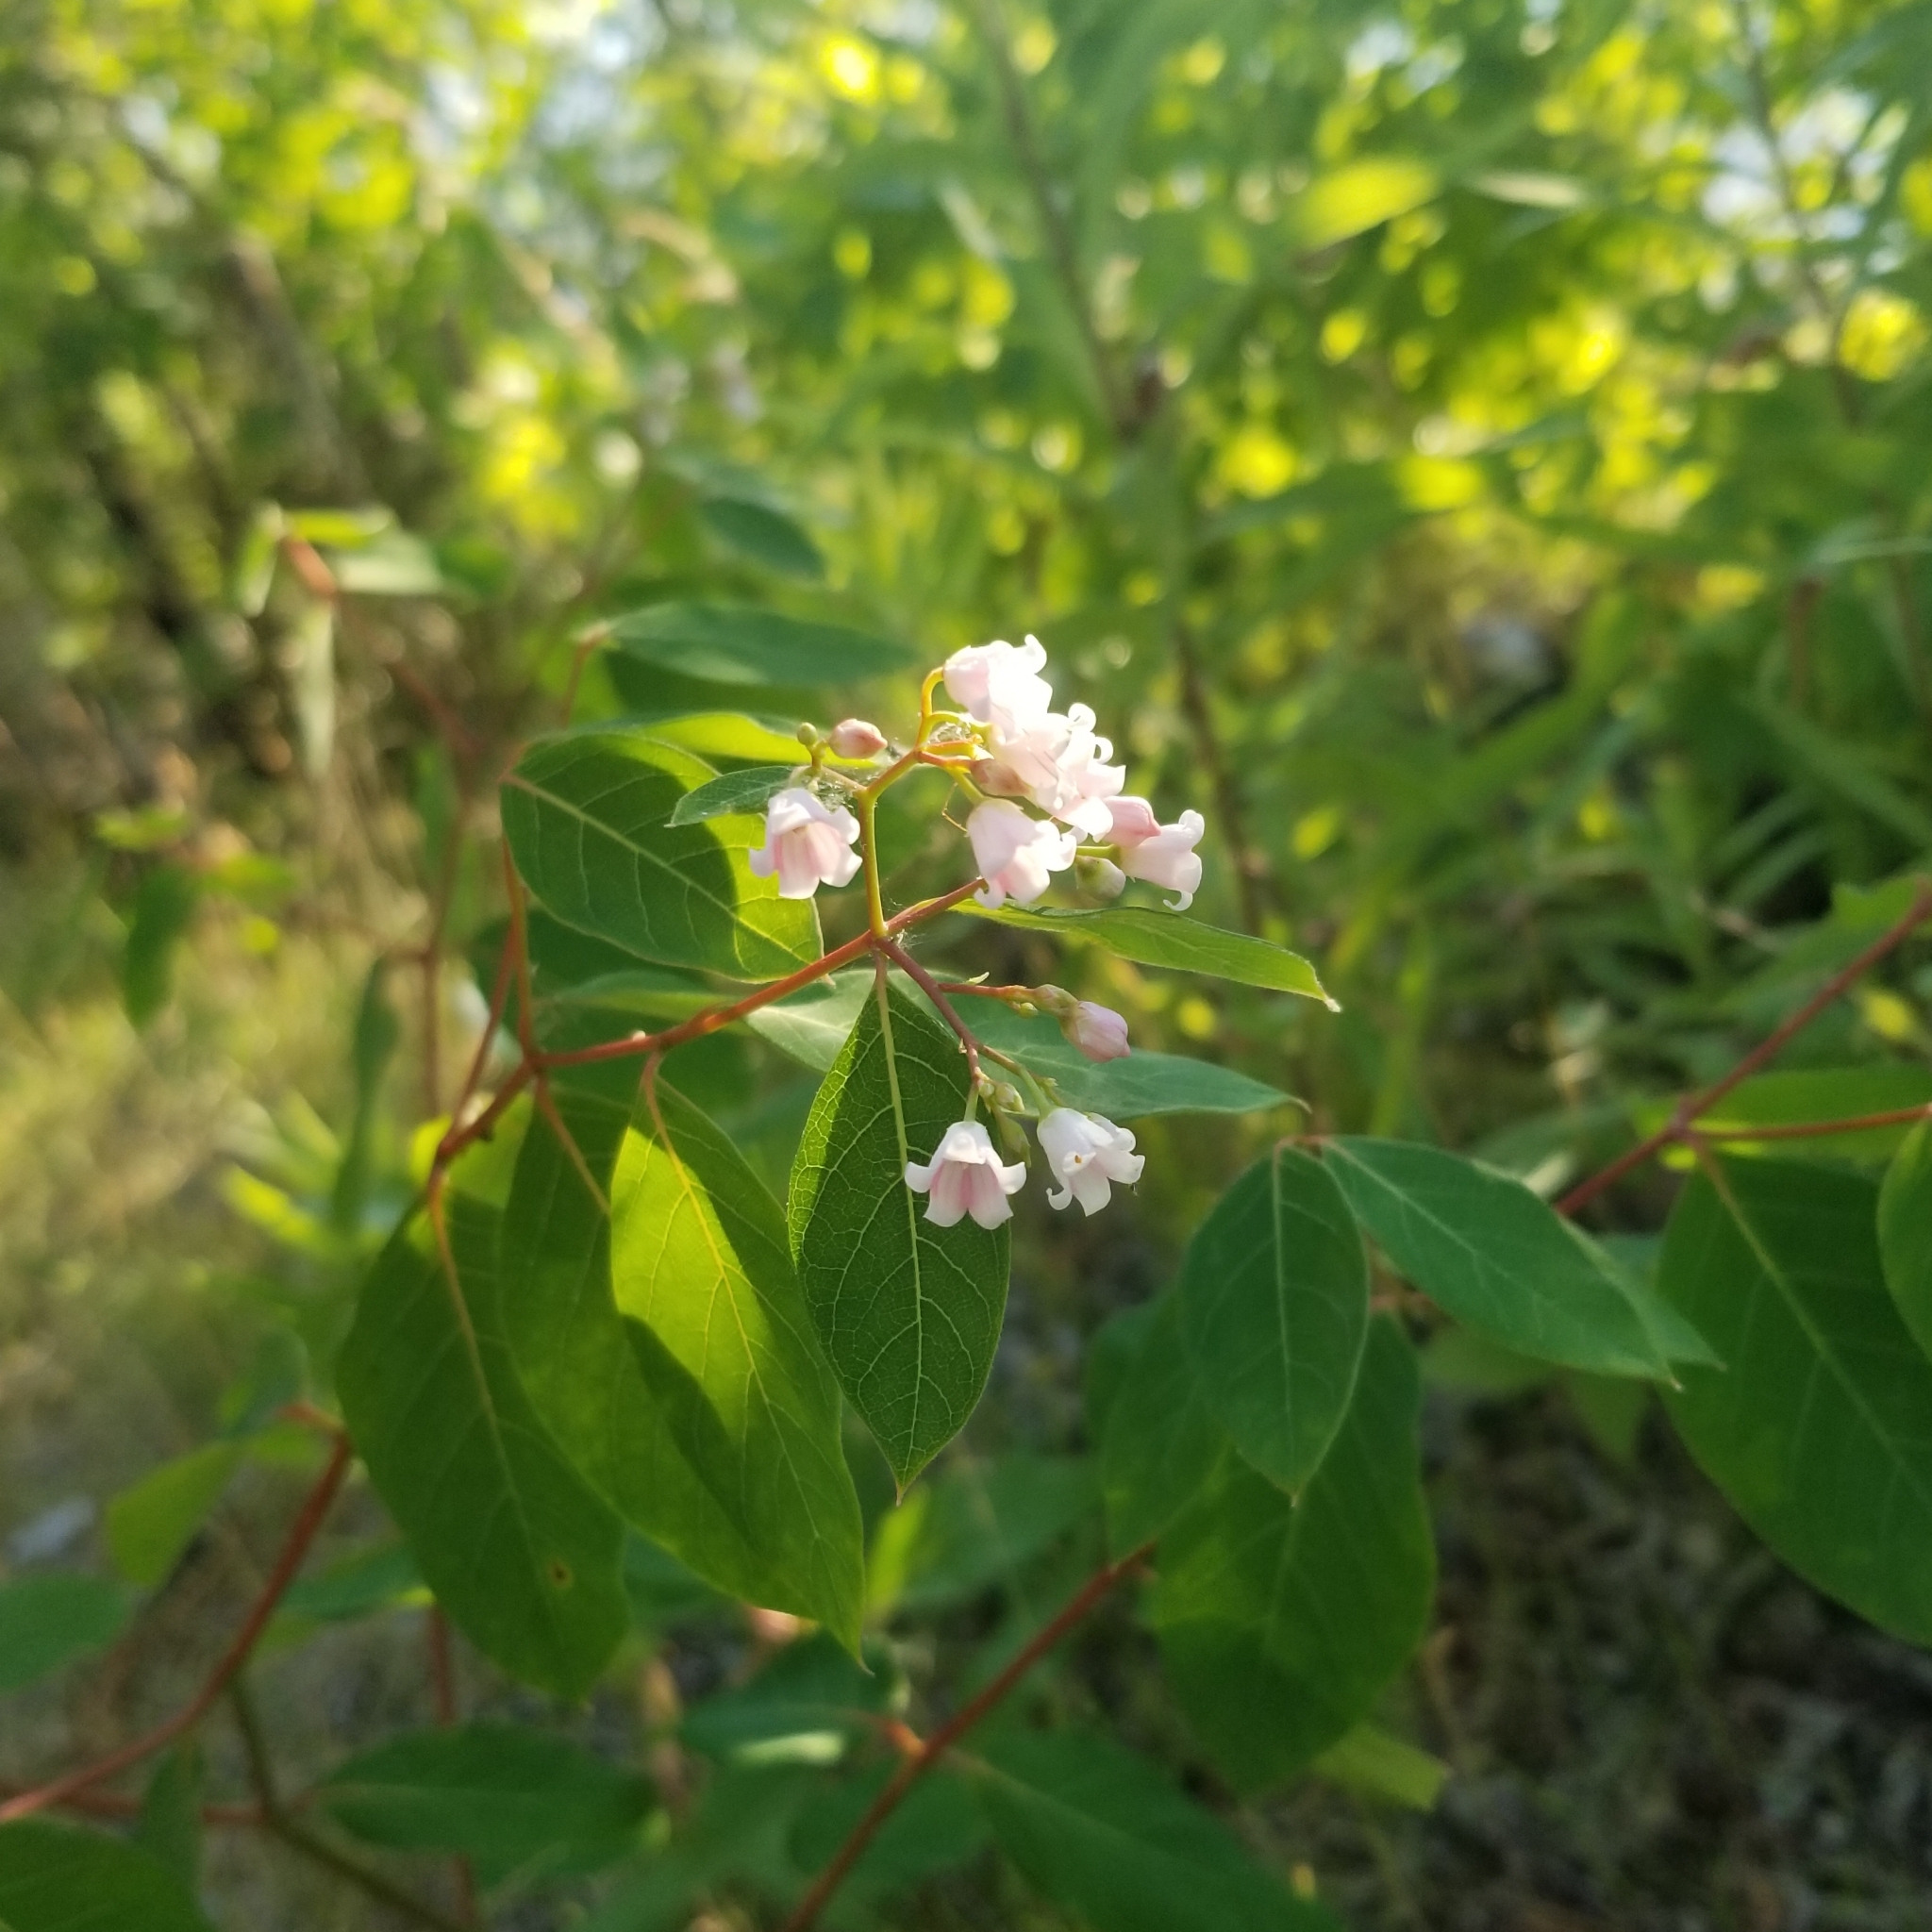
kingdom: Plantae
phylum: Tracheophyta
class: Magnoliopsida
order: Gentianales
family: Apocynaceae
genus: Apocynum
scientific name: Apocynum androsaemifolium
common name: Spreading dogbane
